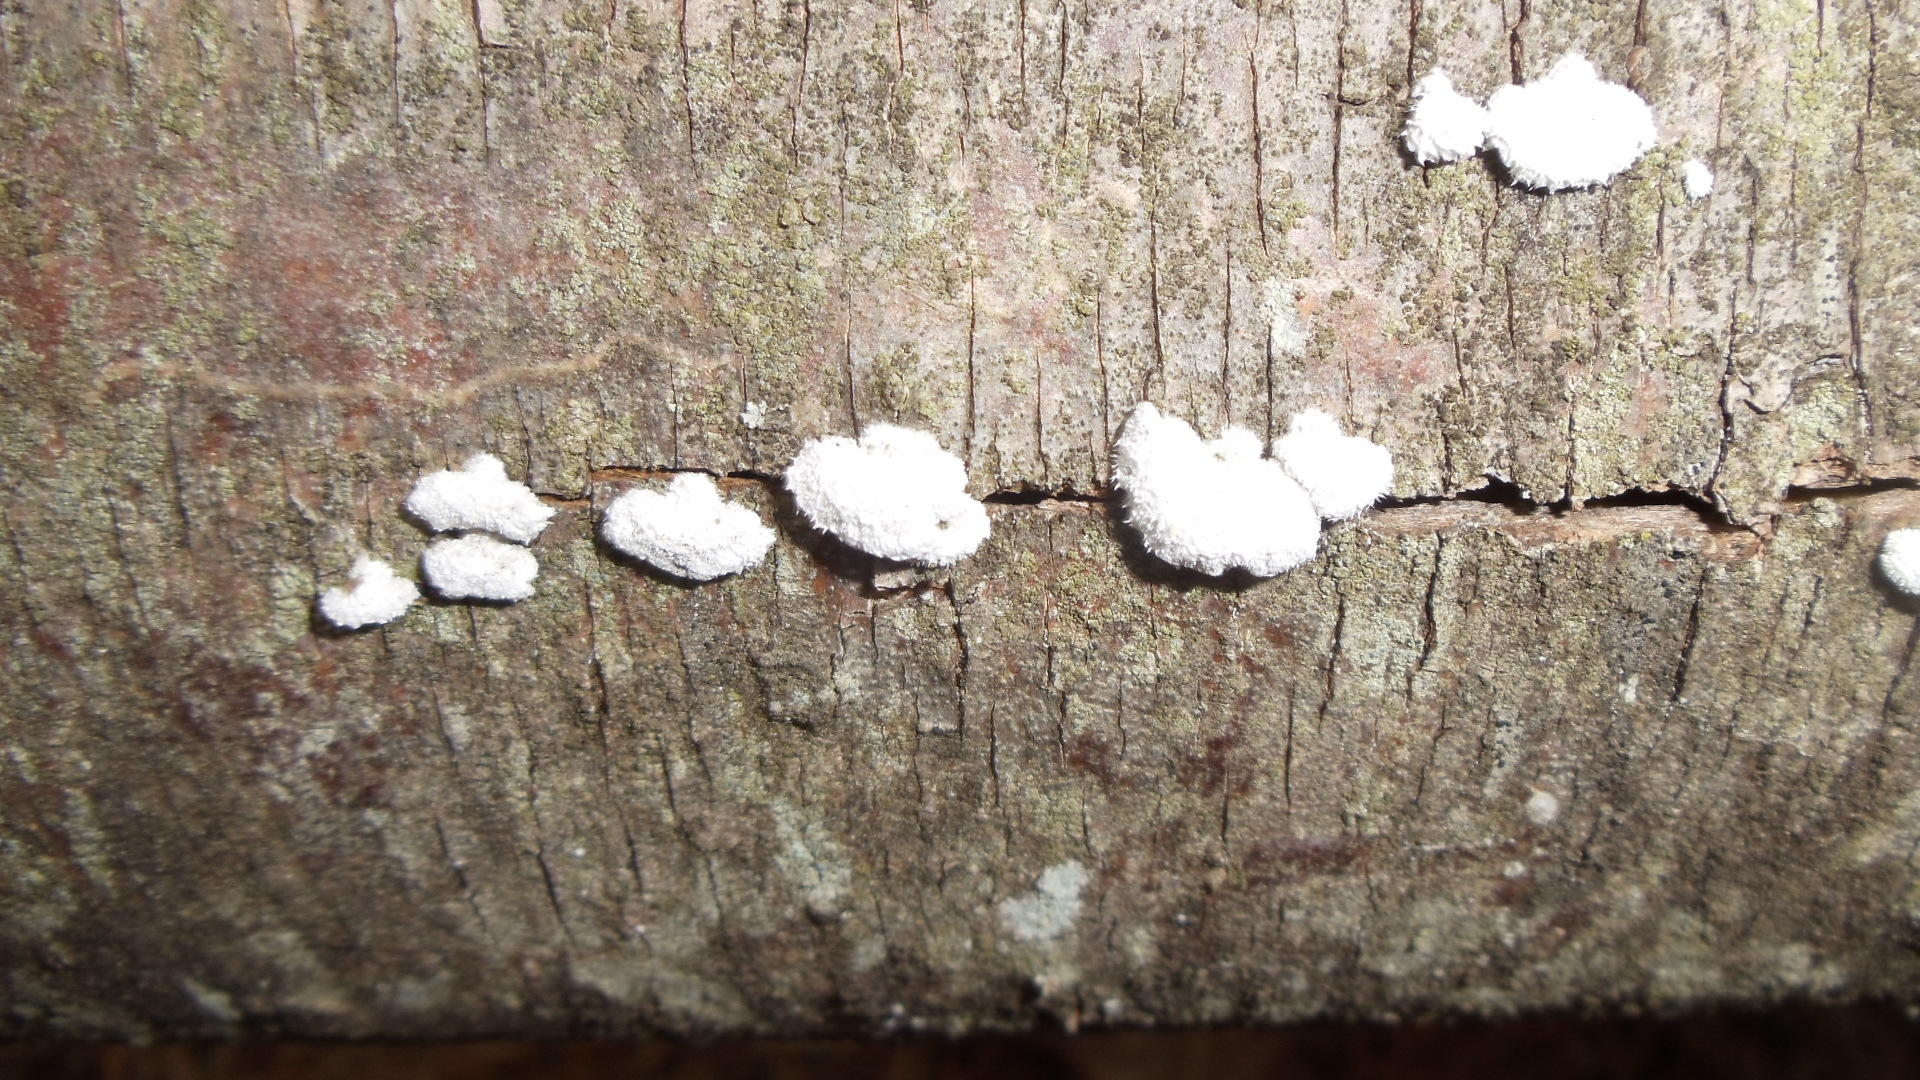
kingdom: Fungi
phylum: Basidiomycota
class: Agaricomycetes
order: Agaricales
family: Schizophyllaceae
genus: Schizophyllum
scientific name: Schizophyllum commune
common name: Common porecrust
